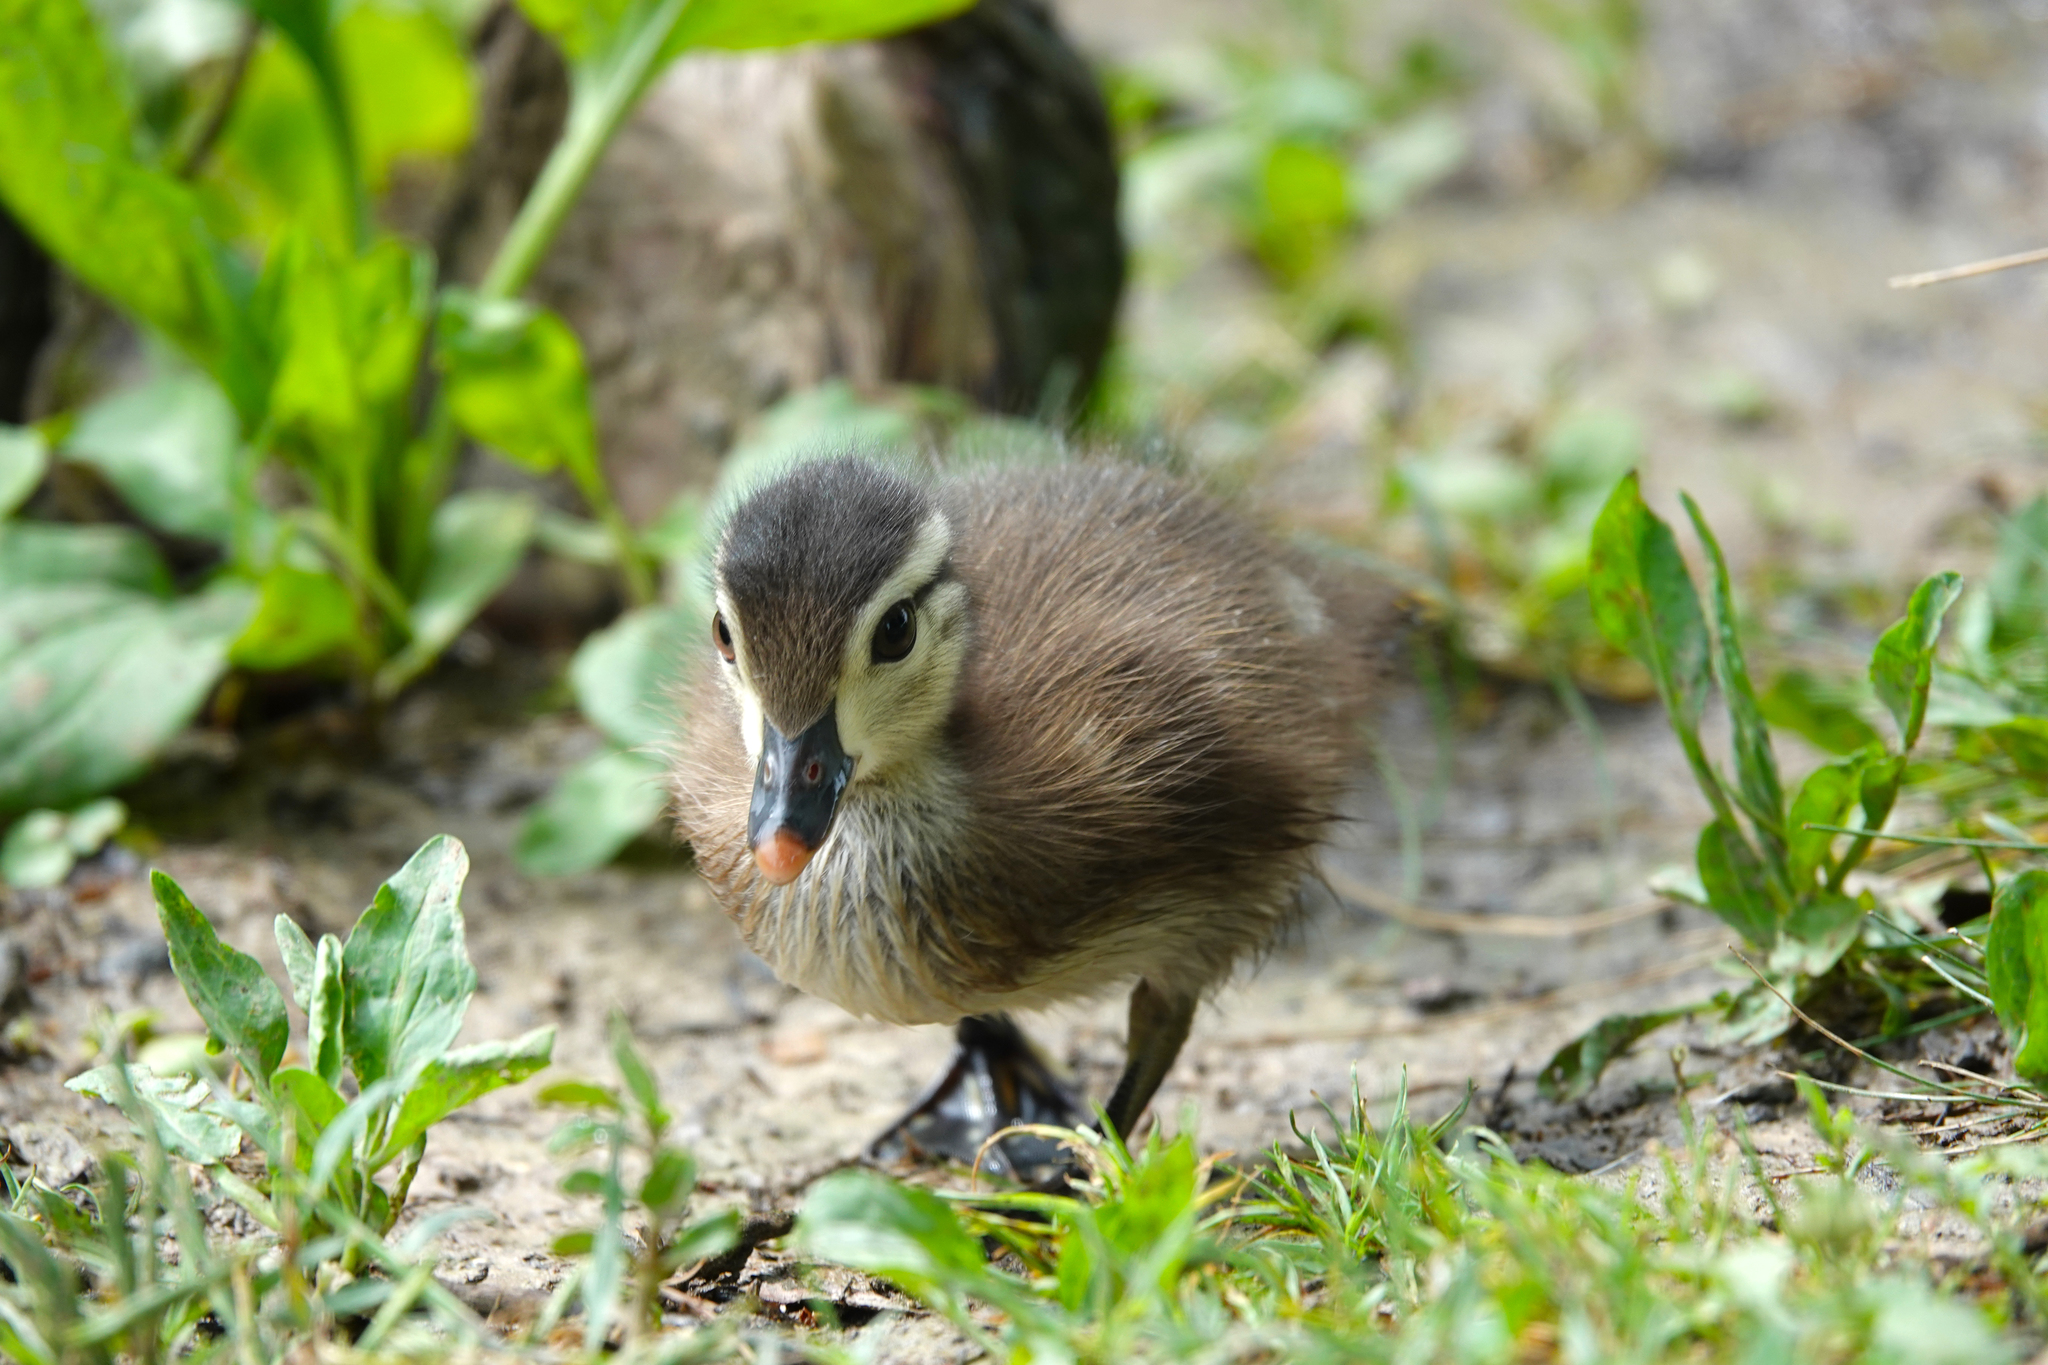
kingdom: Animalia
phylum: Chordata
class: Aves
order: Anseriformes
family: Anatidae
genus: Aix
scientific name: Aix sponsa
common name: Wood duck
